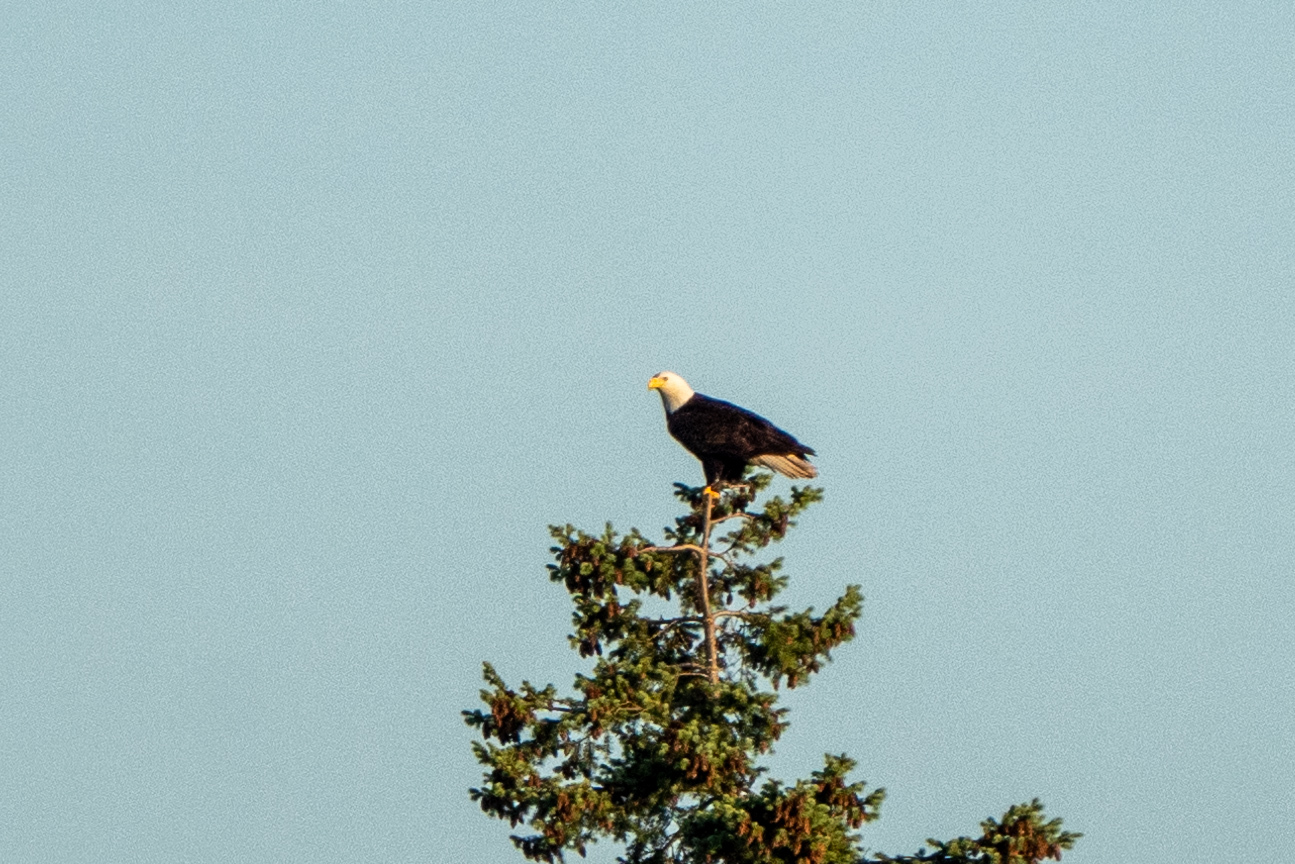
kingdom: Animalia
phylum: Chordata
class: Aves
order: Accipitriformes
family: Accipitridae
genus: Haliaeetus
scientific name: Haliaeetus leucocephalus
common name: Bald eagle
